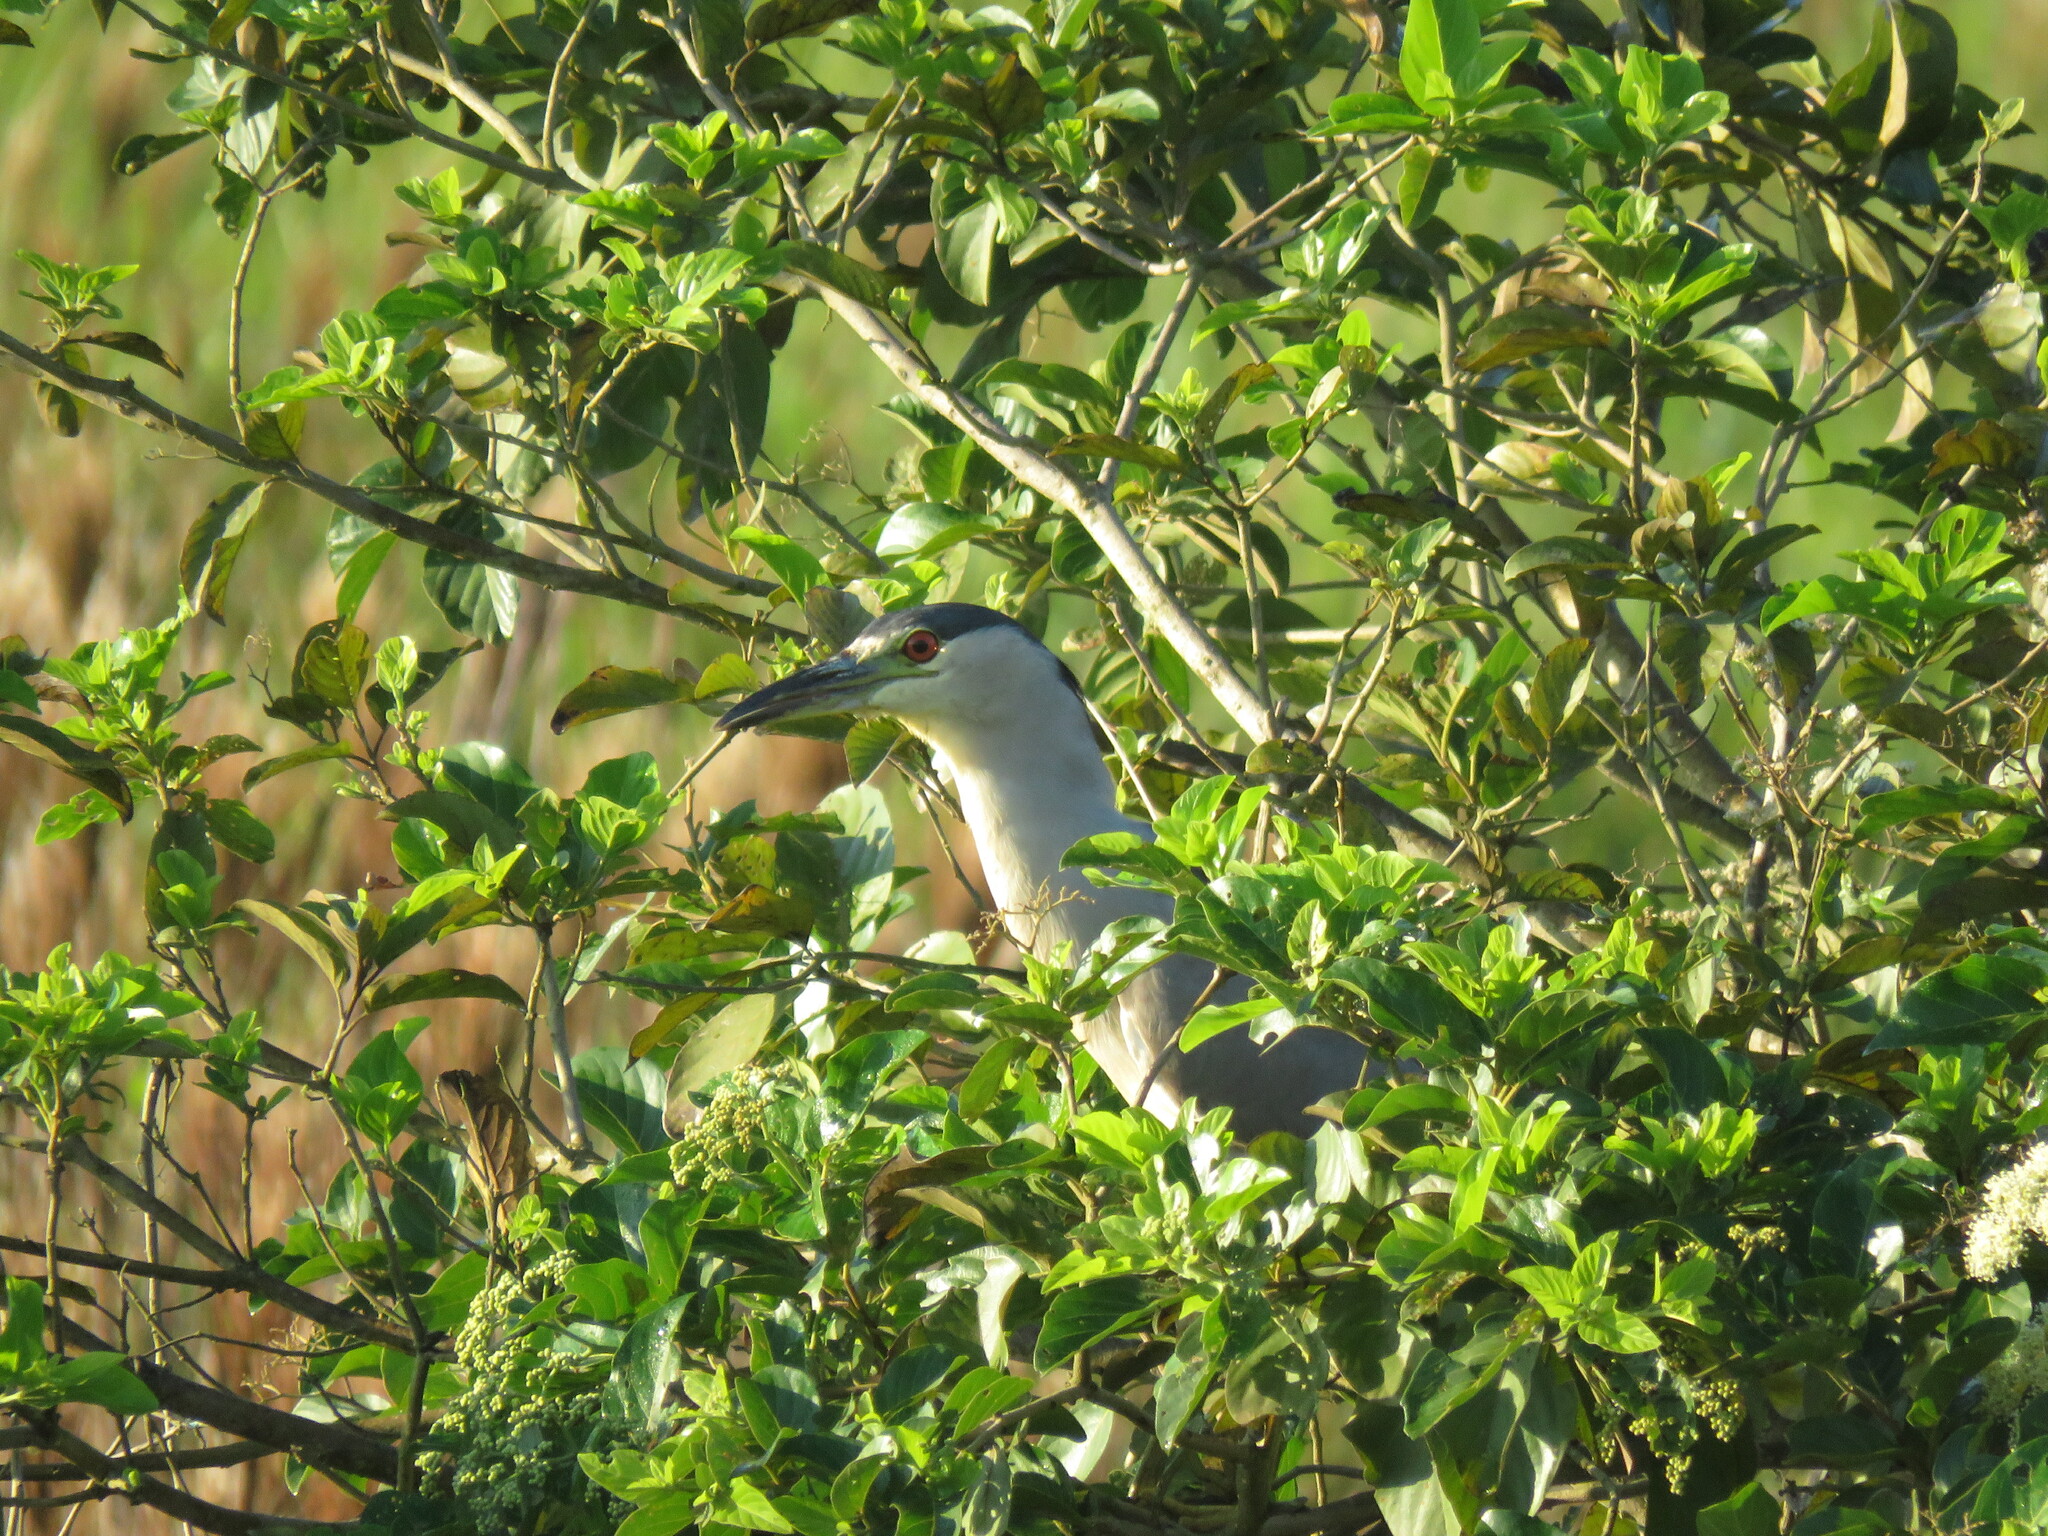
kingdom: Animalia
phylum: Chordata
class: Aves
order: Pelecaniformes
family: Ardeidae
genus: Nycticorax
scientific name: Nycticorax nycticorax
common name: Black-crowned night heron
